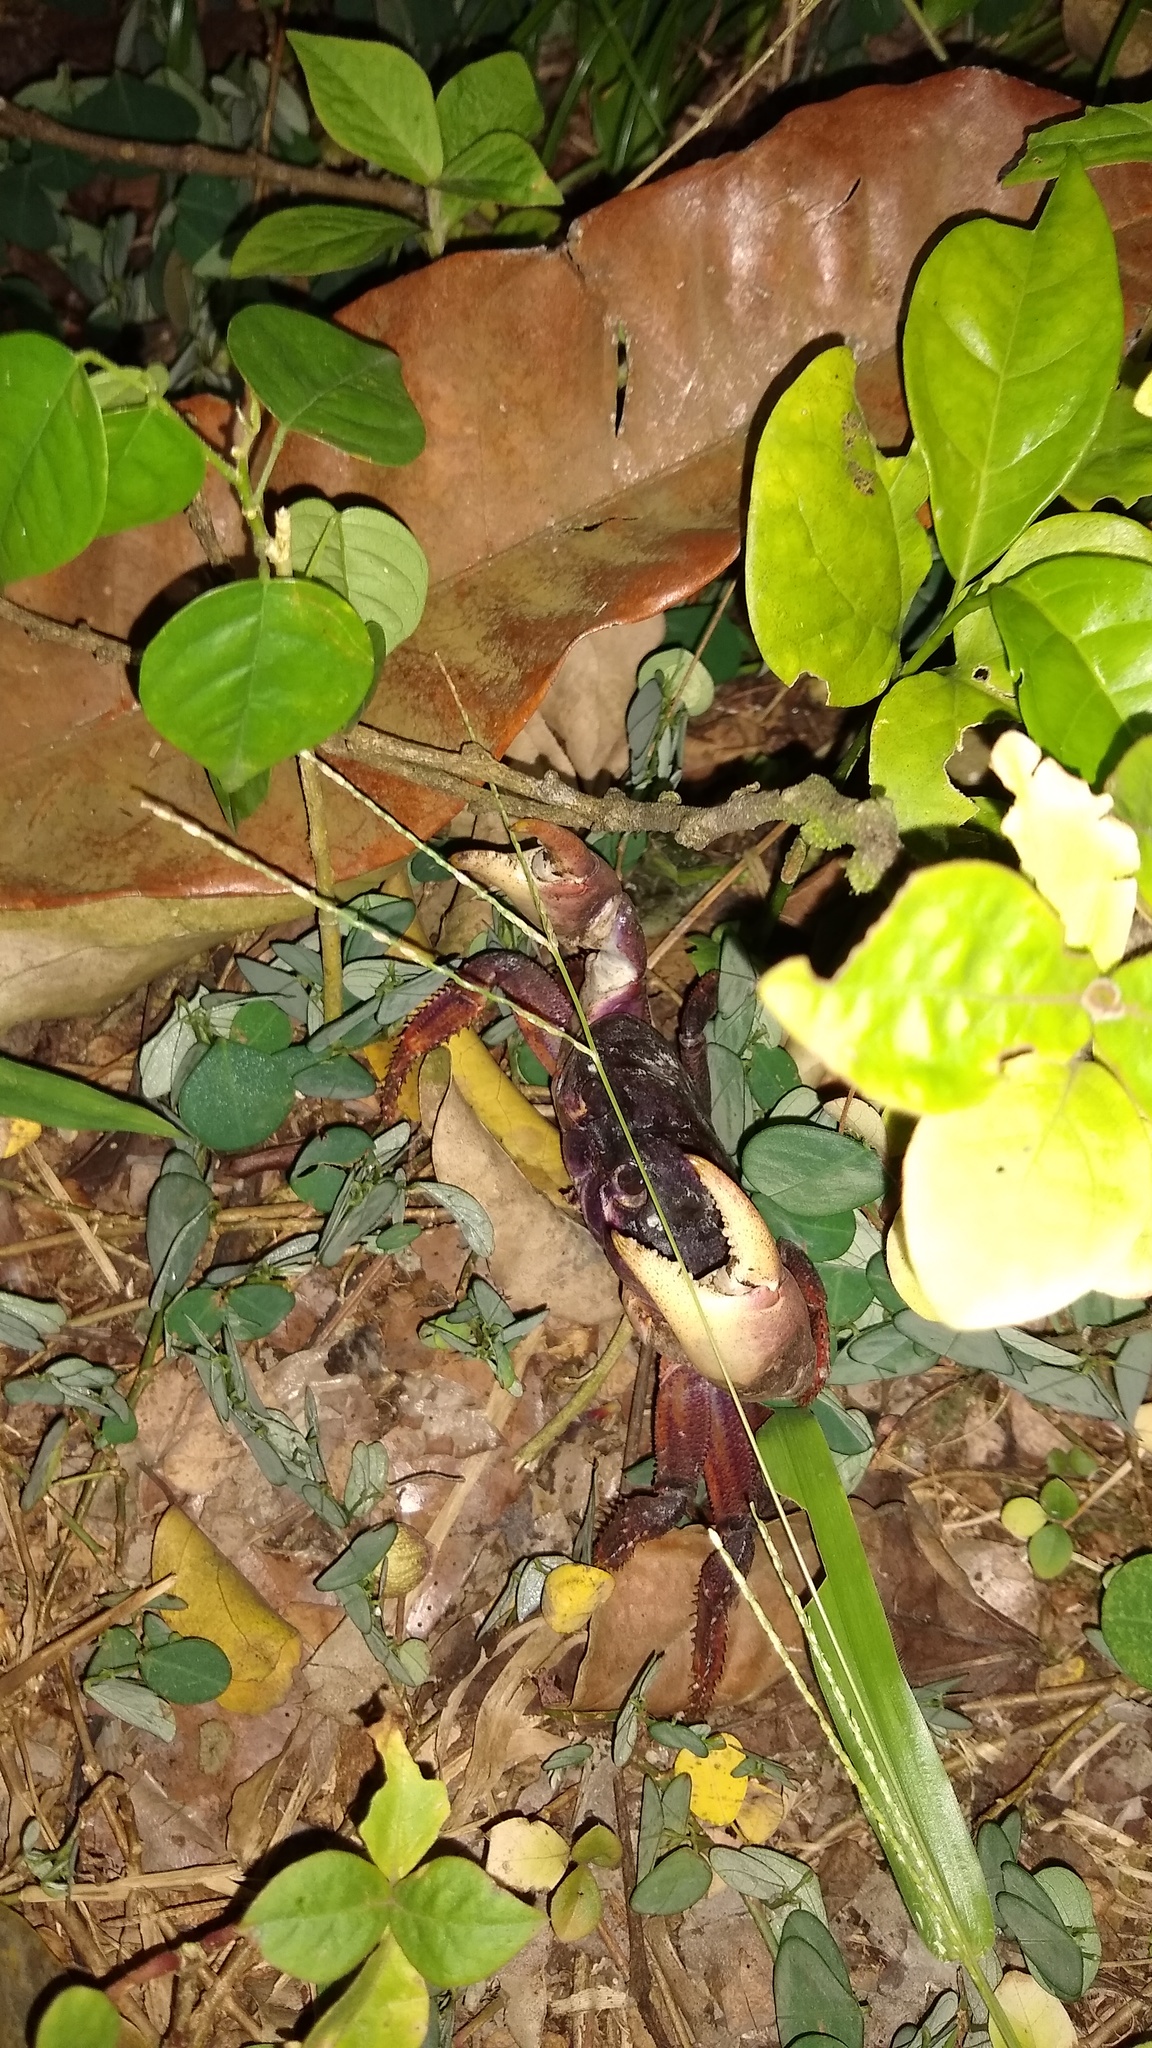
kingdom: Animalia
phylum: Arthropoda
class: Malacostraca
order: Decapoda
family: Gecarcinidae
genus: Johngarthia
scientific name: Johngarthia weileri
